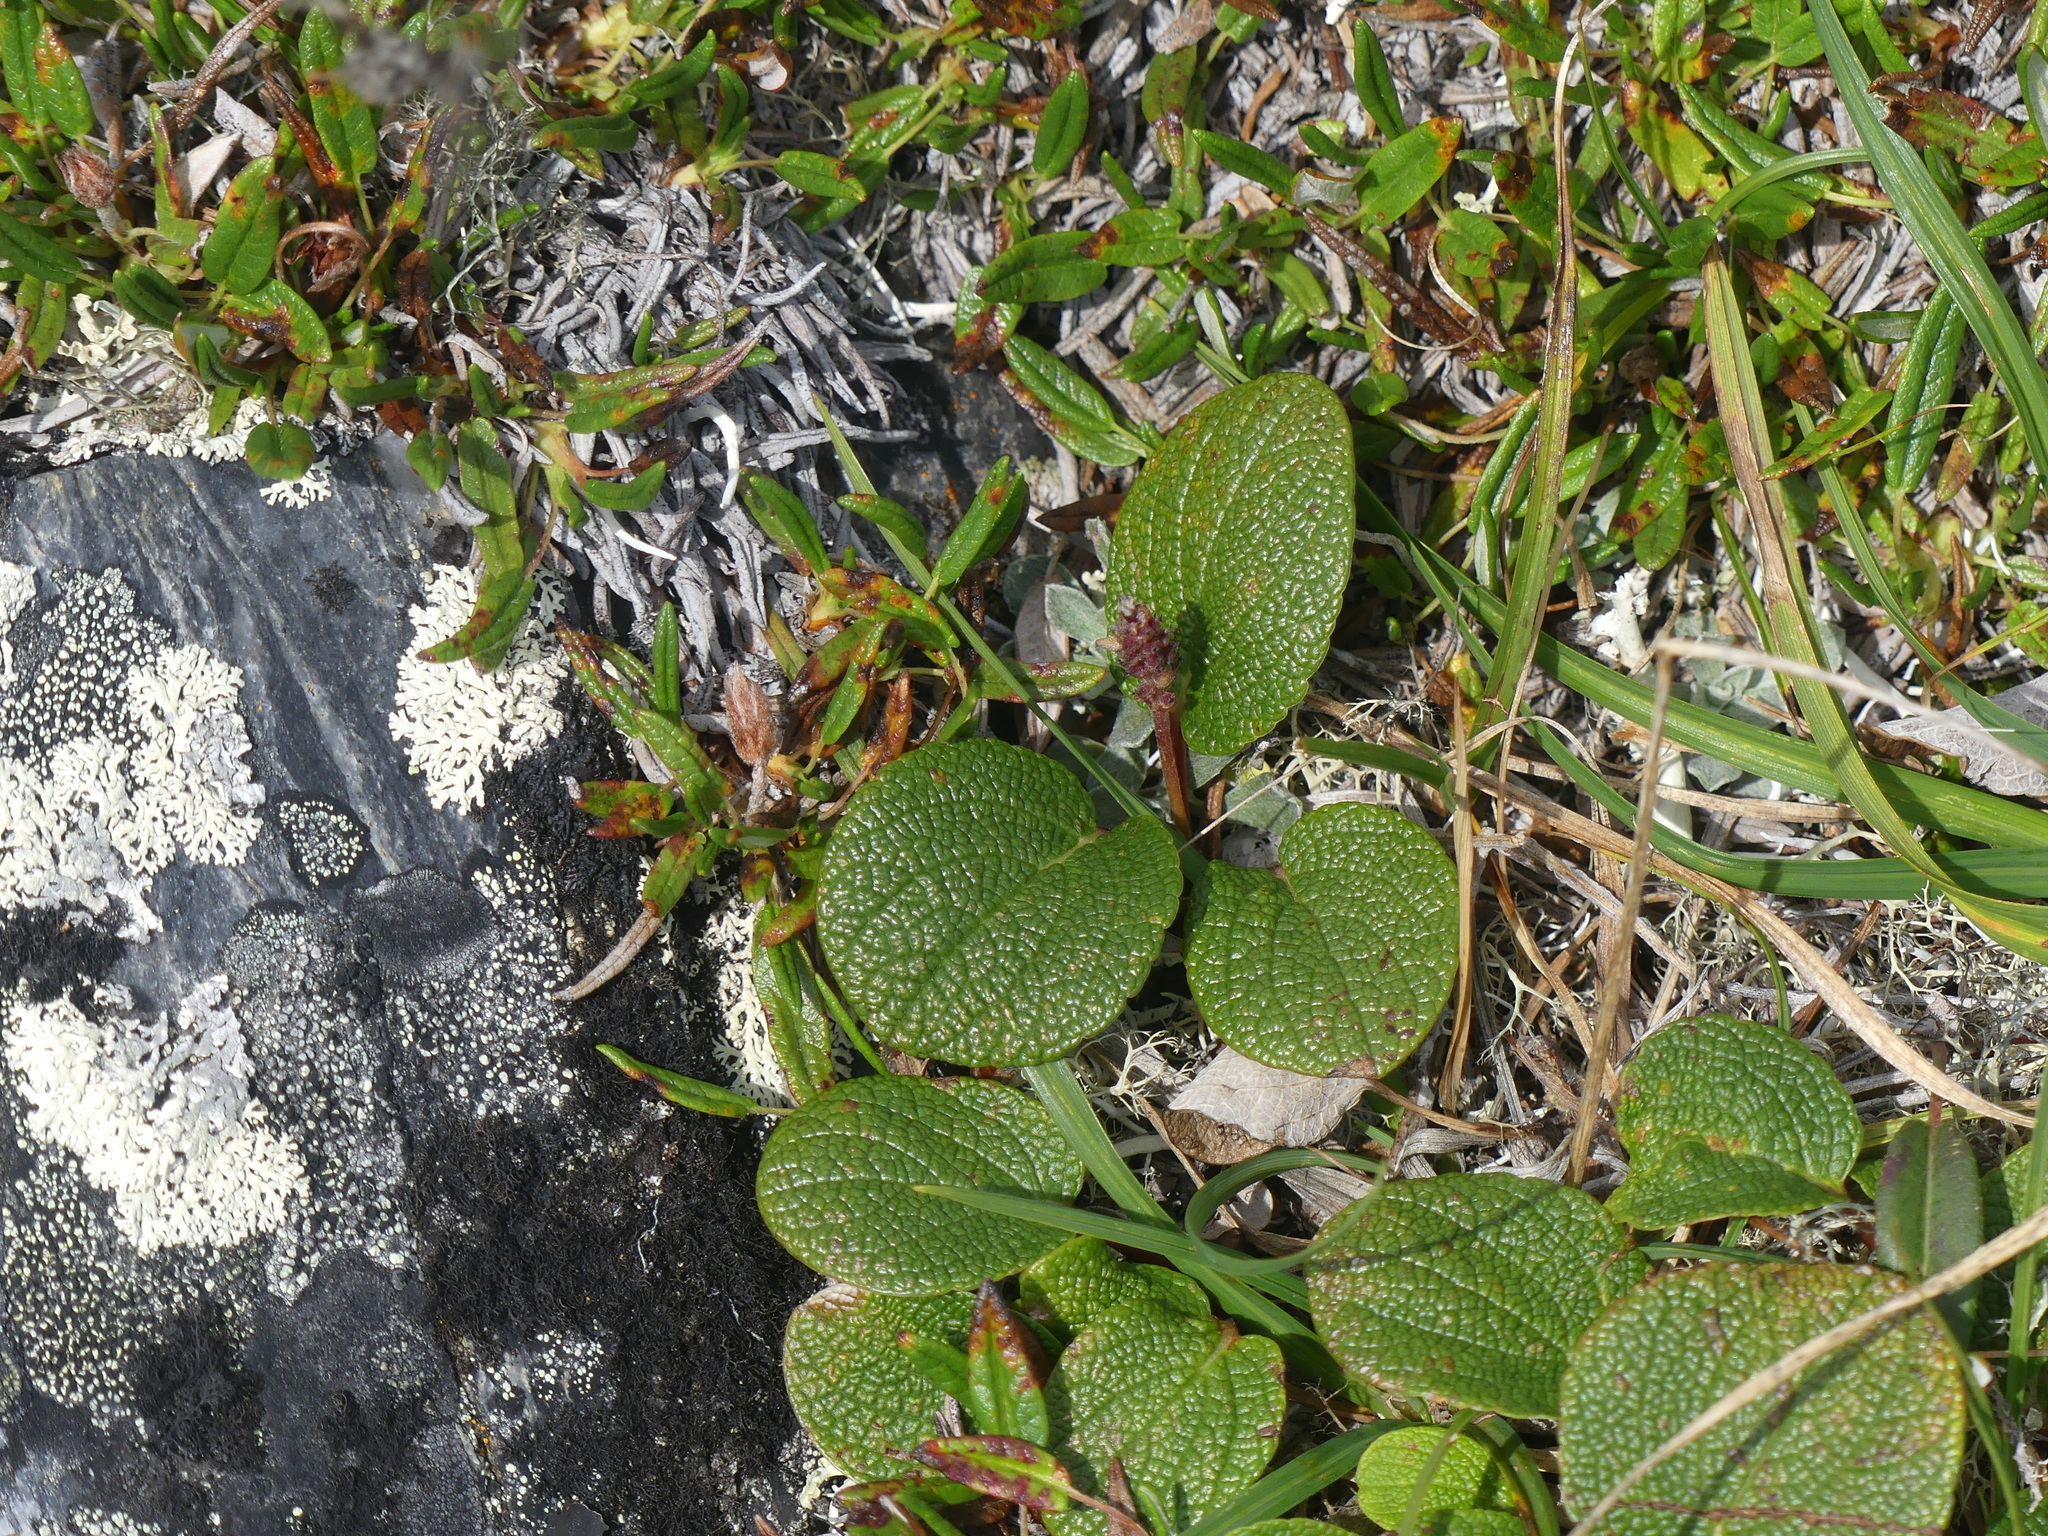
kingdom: Plantae
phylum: Tracheophyta
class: Magnoliopsida
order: Malpighiales
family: Salicaceae
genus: Salix
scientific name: Salix reticulata
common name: Net-leaved willow
